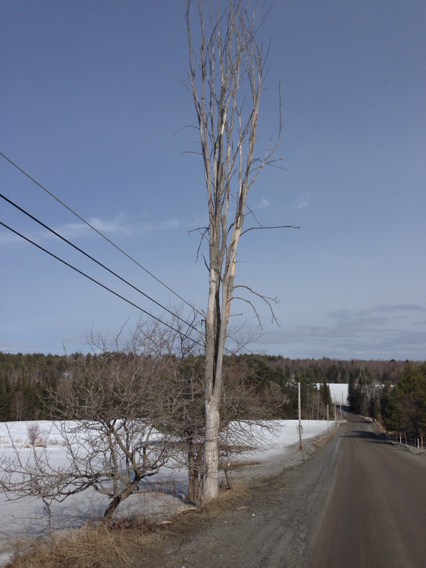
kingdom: Plantae
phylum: Tracheophyta
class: Magnoliopsida
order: Rosales
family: Ulmaceae
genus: Ulmus
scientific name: Ulmus americana
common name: American elm
